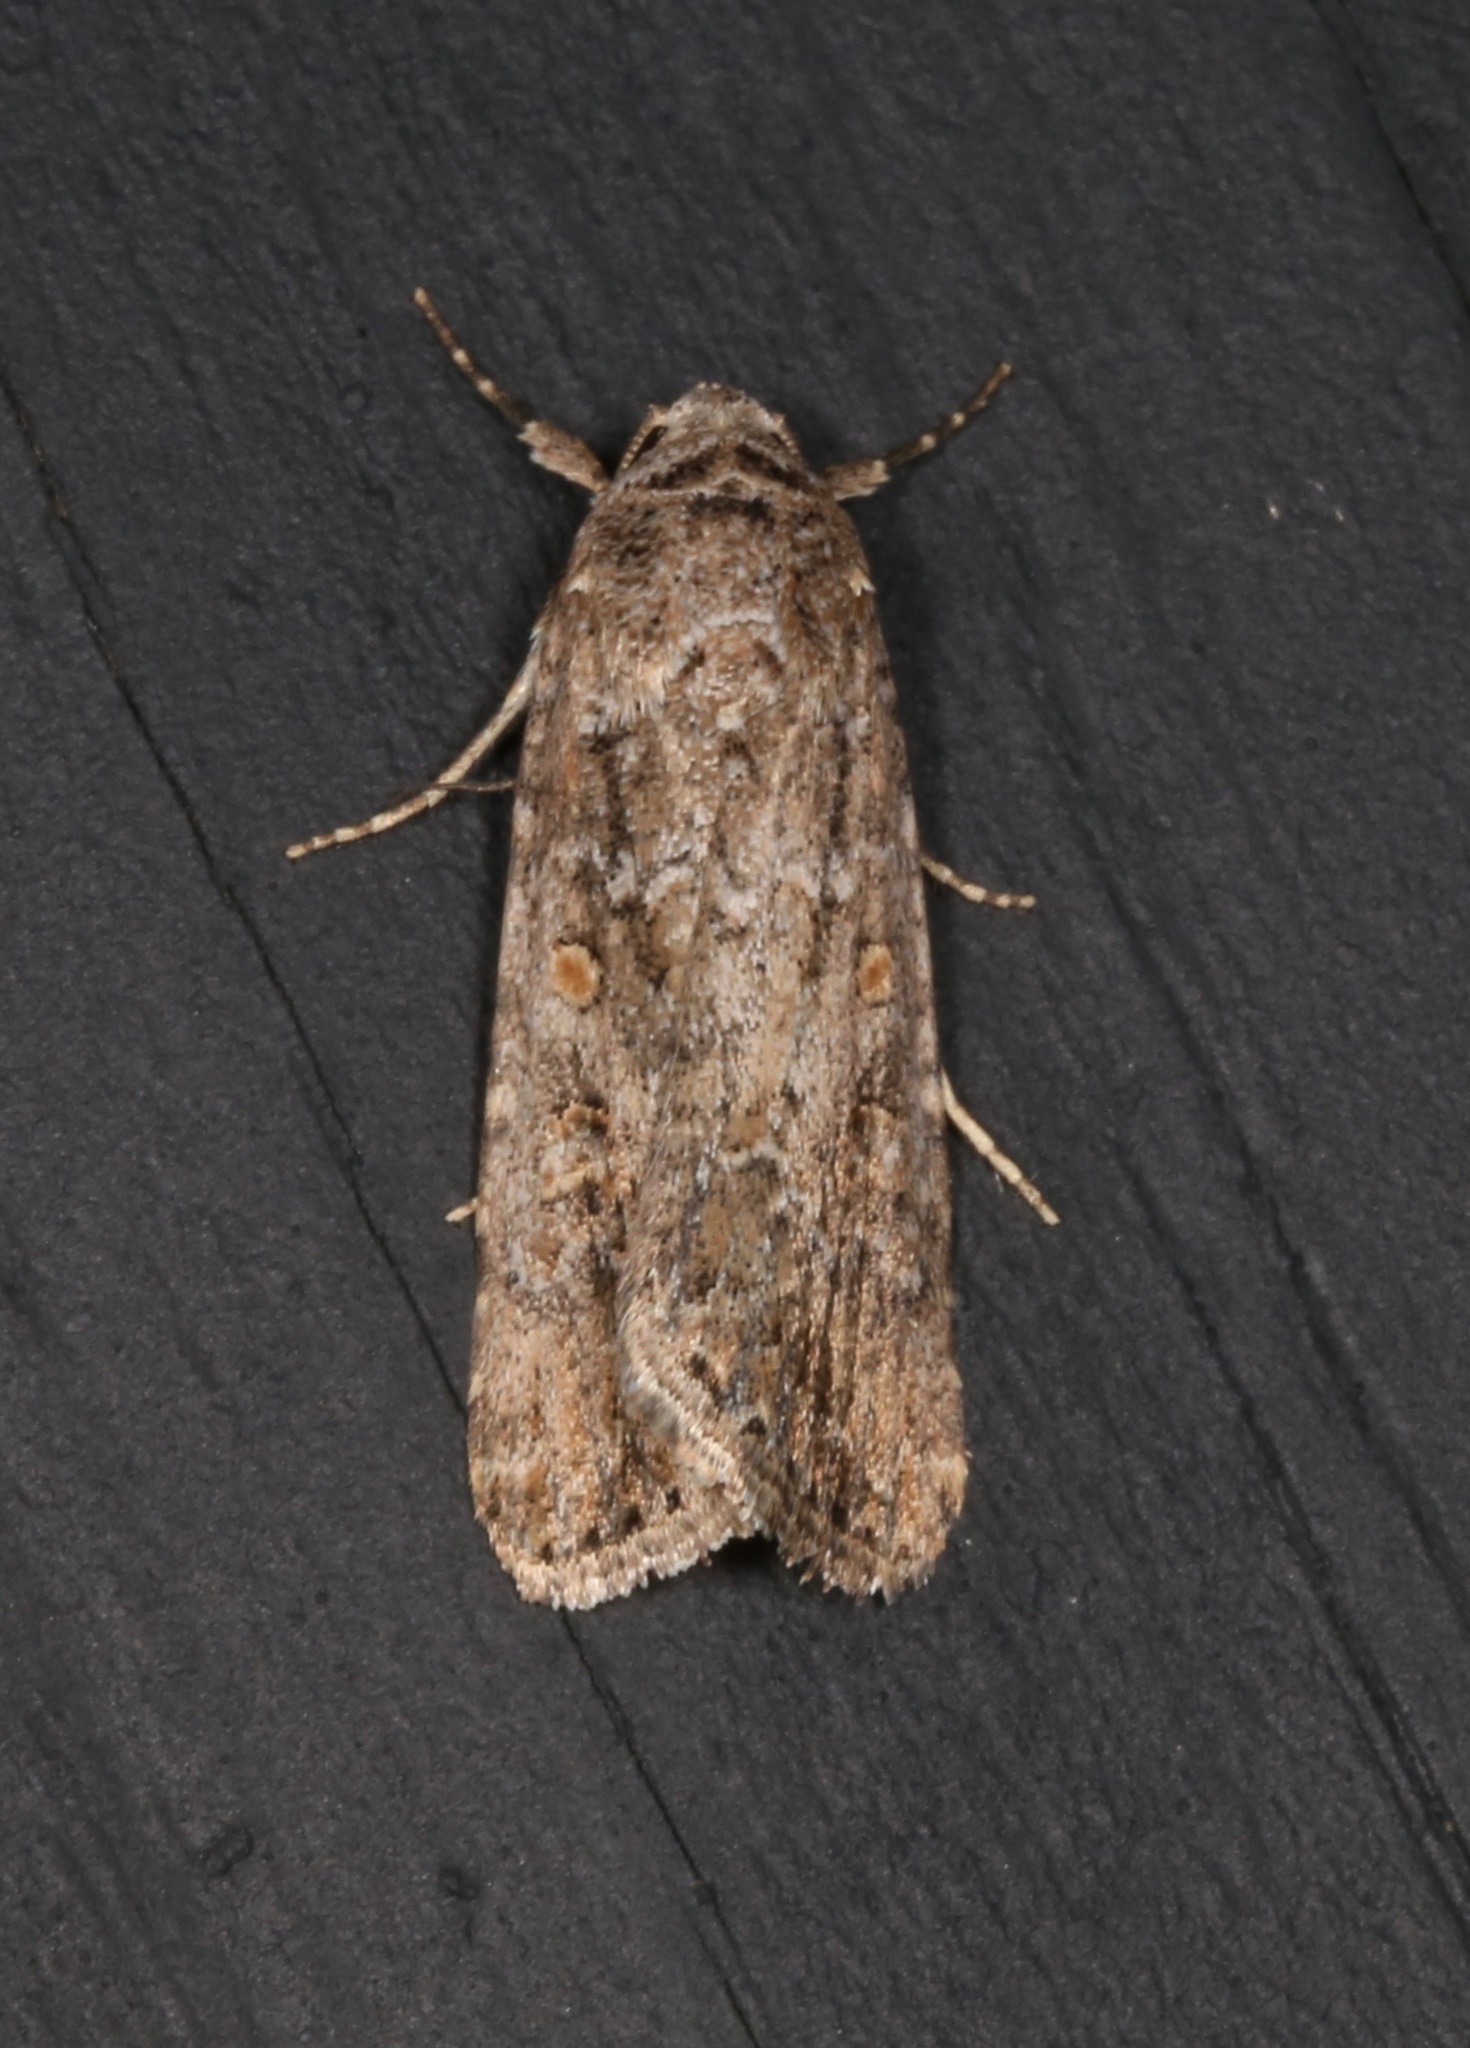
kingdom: Animalia
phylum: Arthropoda
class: Insecta
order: Lepidoptera
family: Noctuidae
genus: Spodoptera
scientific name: Spodoptera exigua
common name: Beet armyworm
